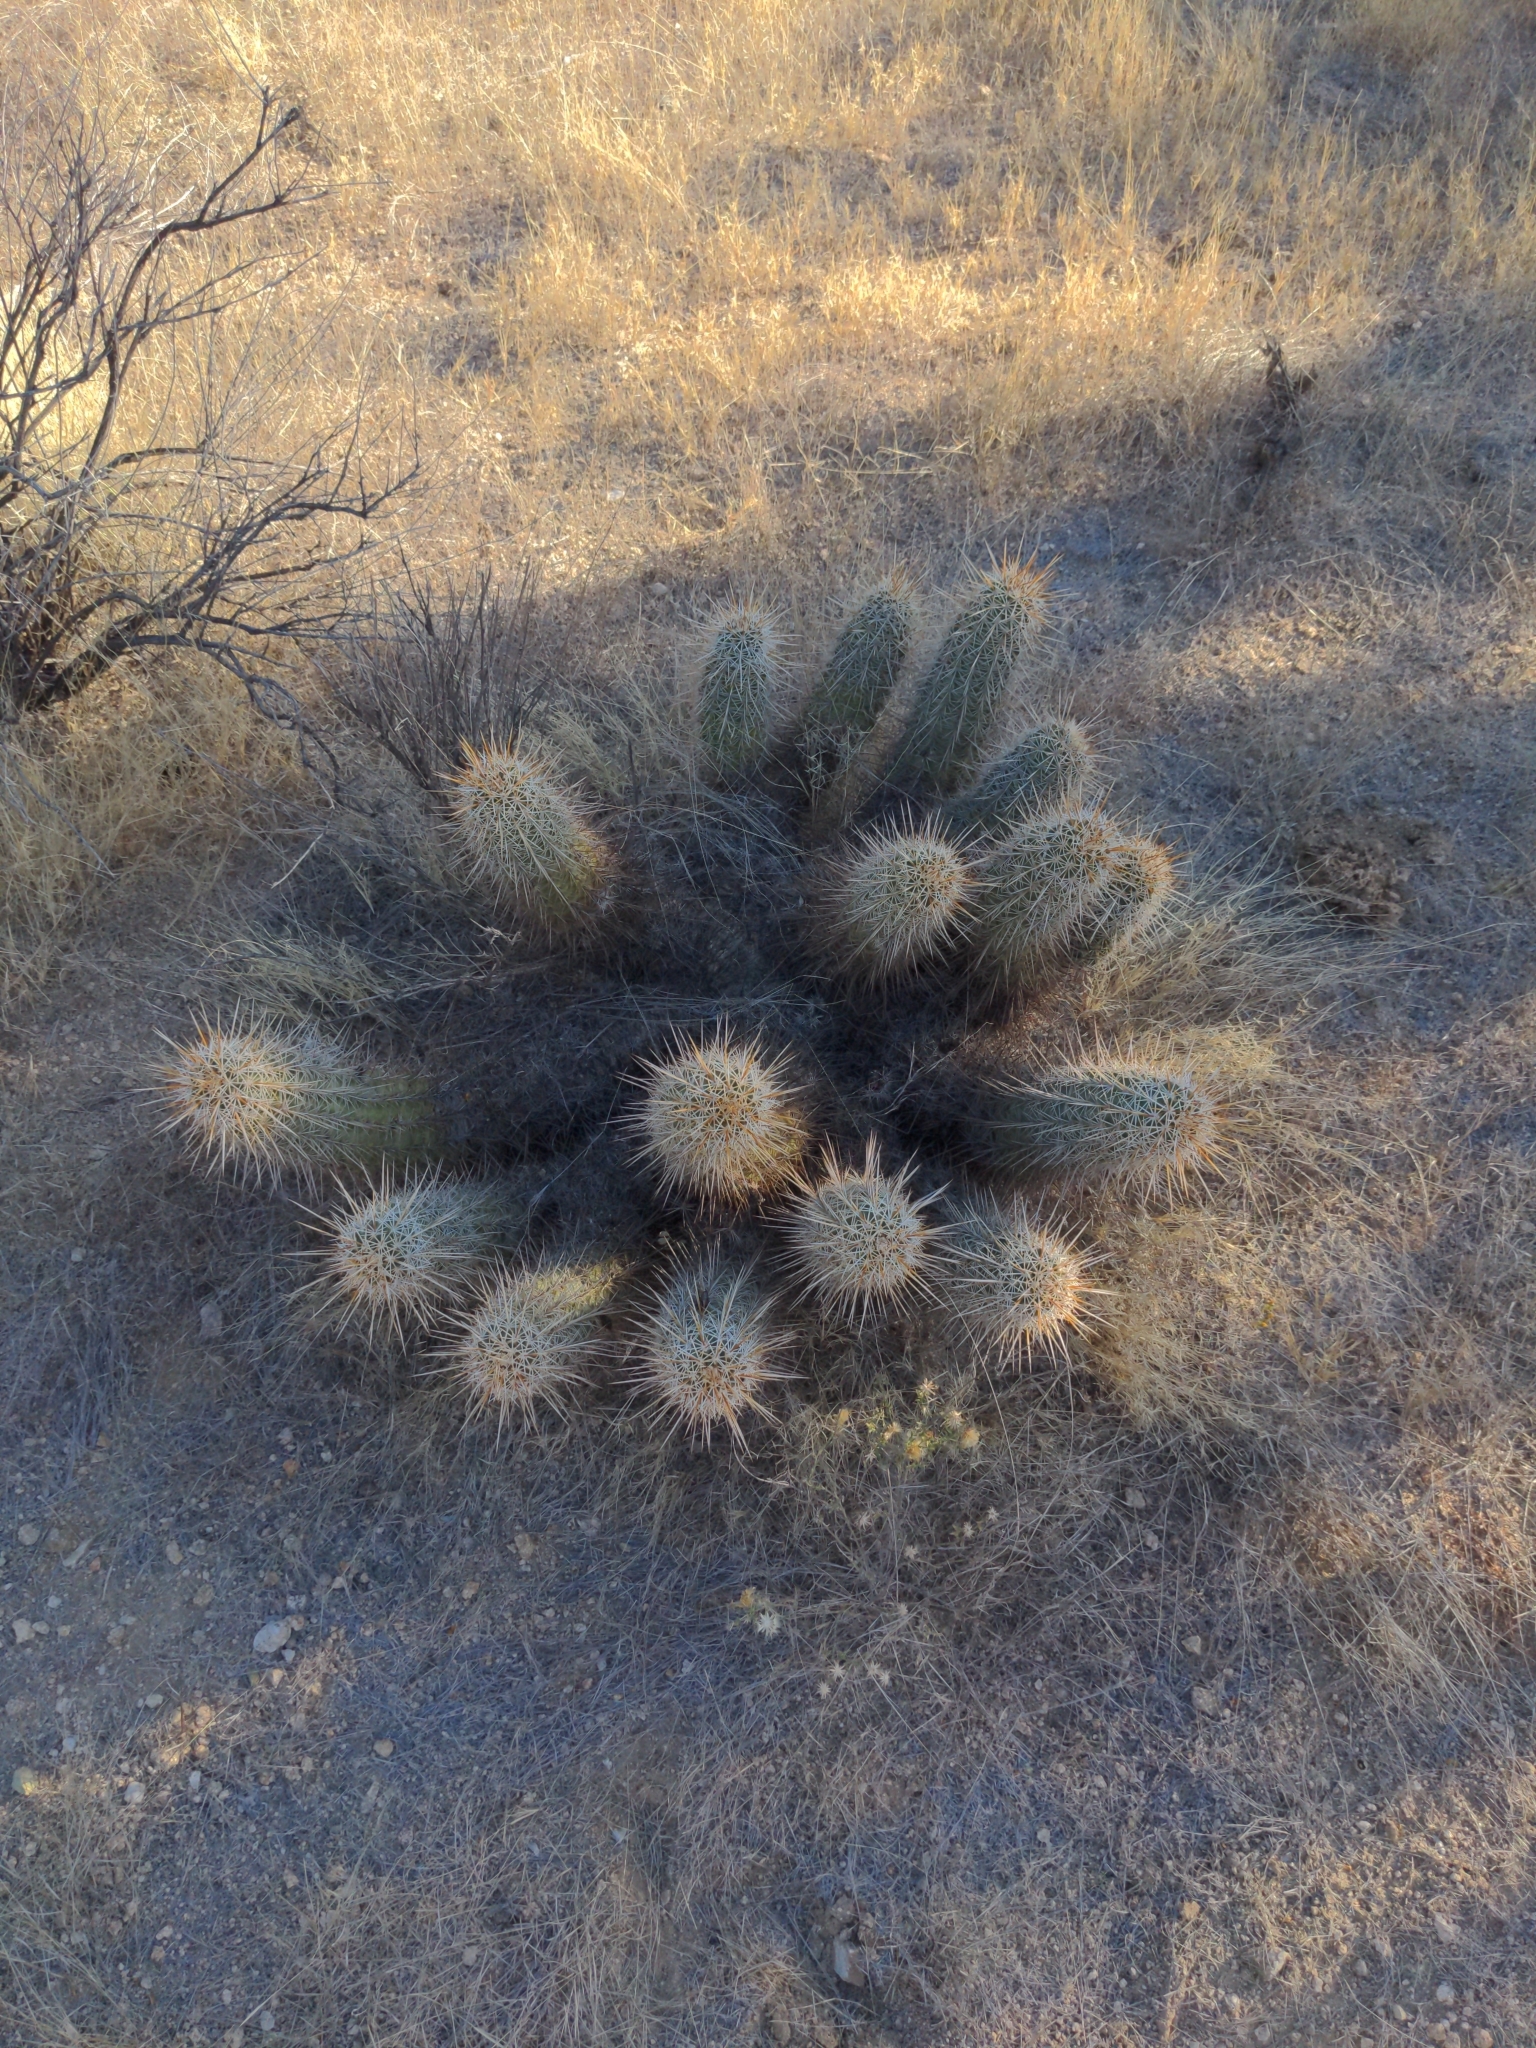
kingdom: Plantae
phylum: Tracheophyta
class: Magnoliopsida
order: Caryophyllales
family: Cactaceae
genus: Echinocereus
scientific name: Echinocereus engelmannii
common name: Engelmann's hedgehog cactus
